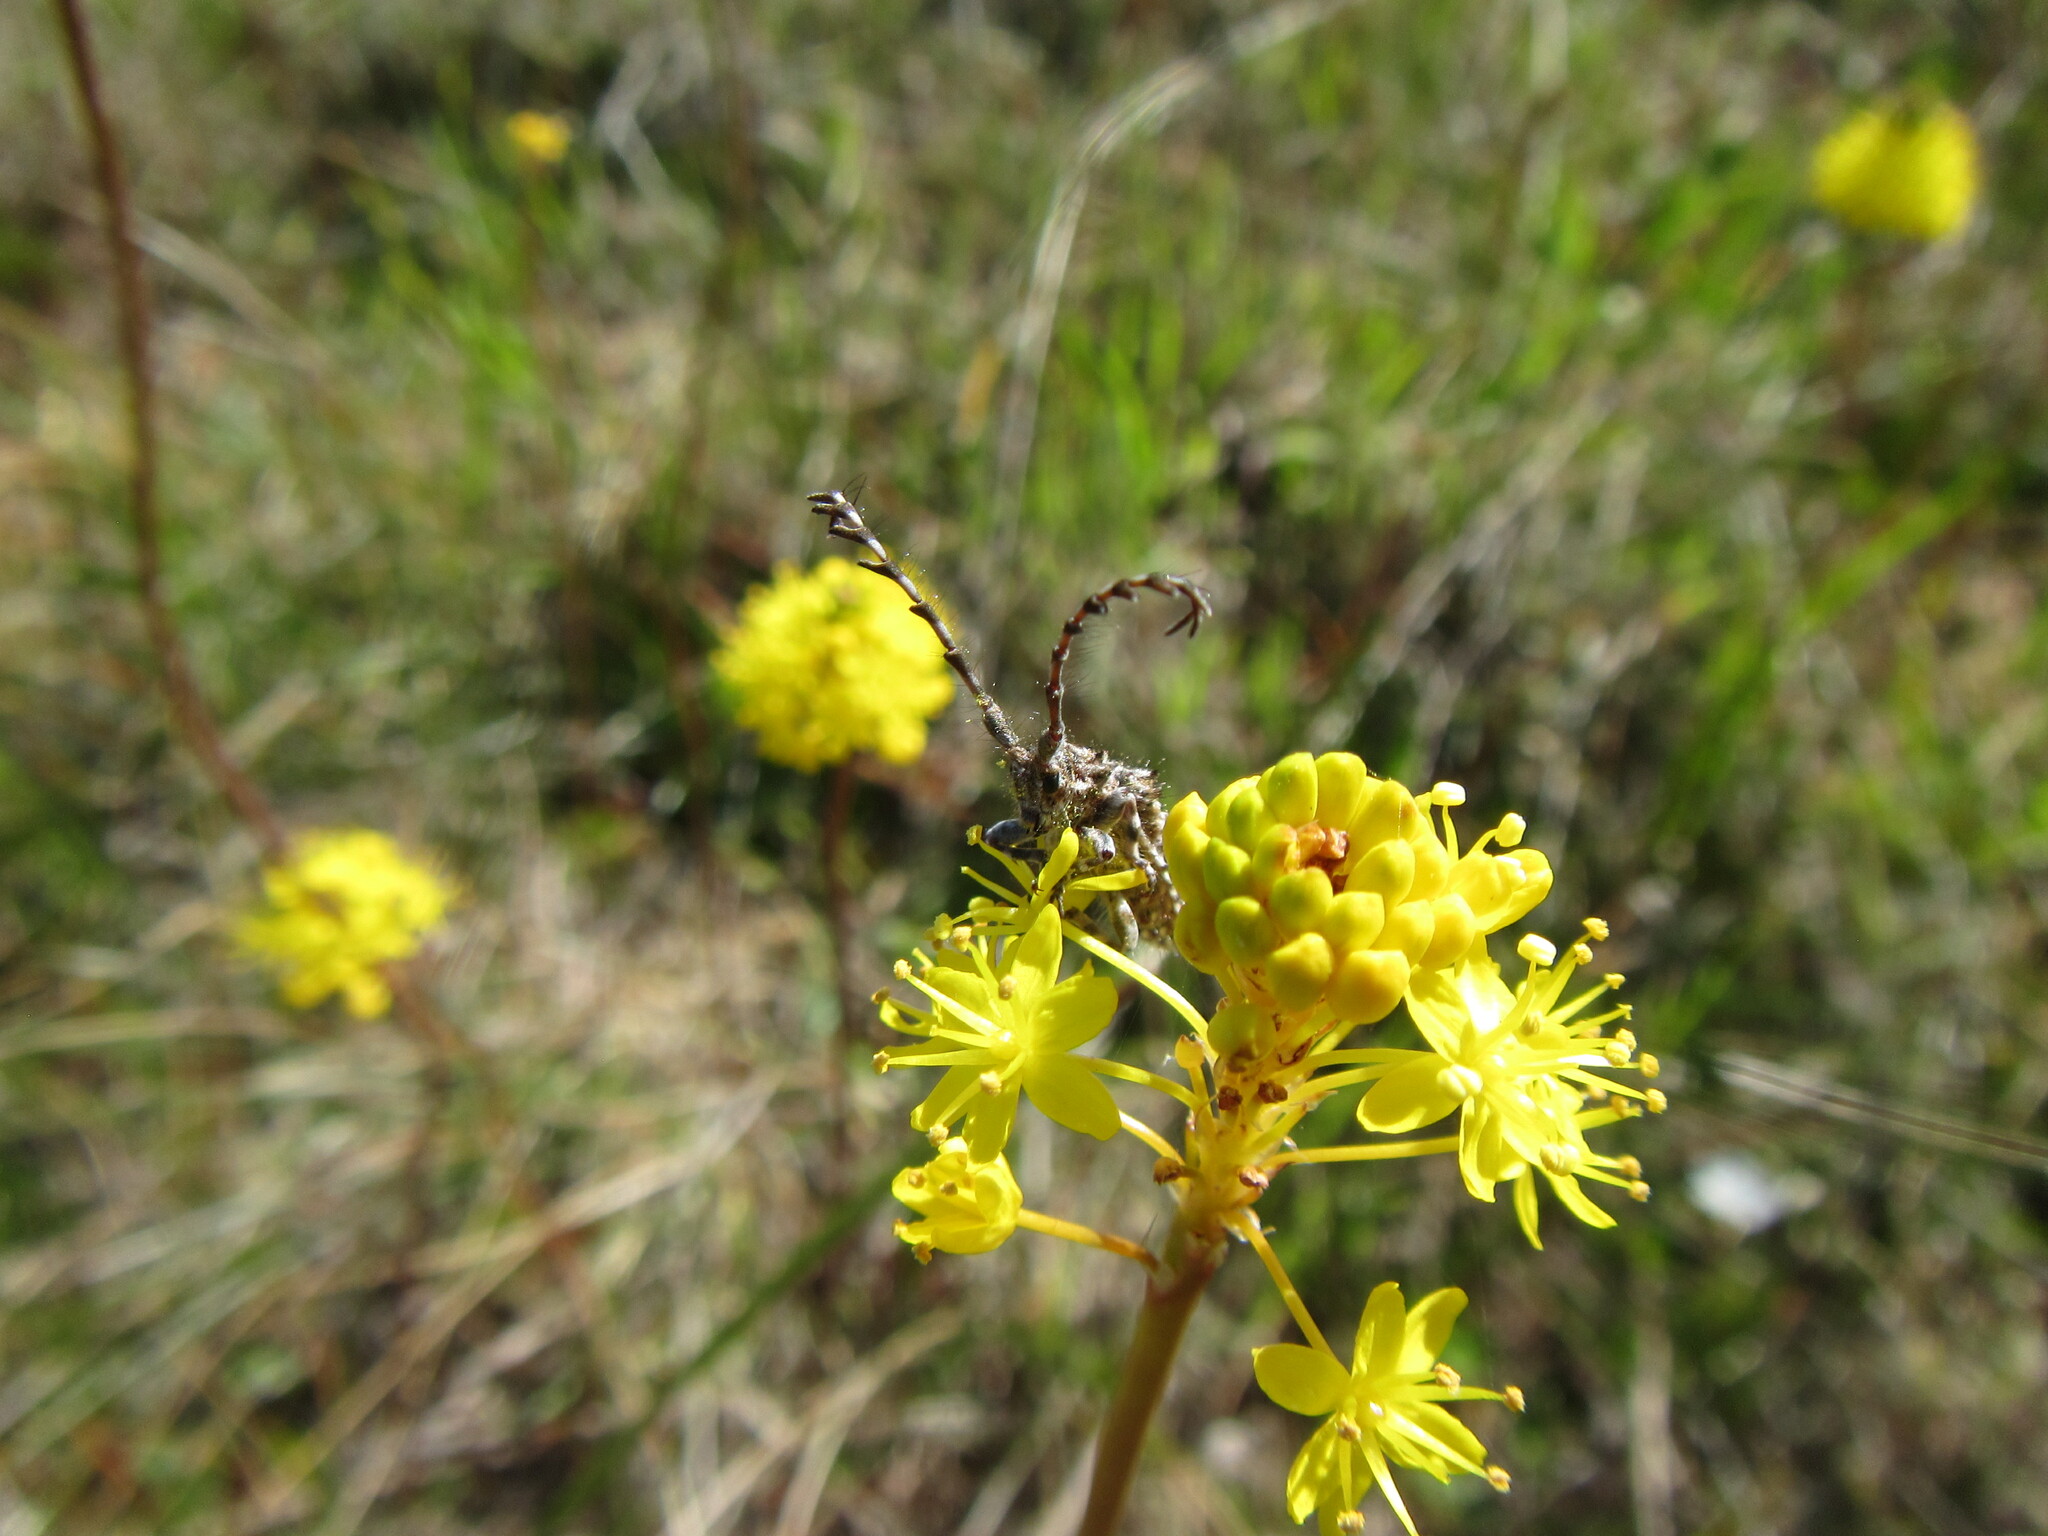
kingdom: Animalia
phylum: Arthropoda
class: Insecta
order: Coleoptera
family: Cerambycidae
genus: Cloniocerus
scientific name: Cloniocerus hystrix
